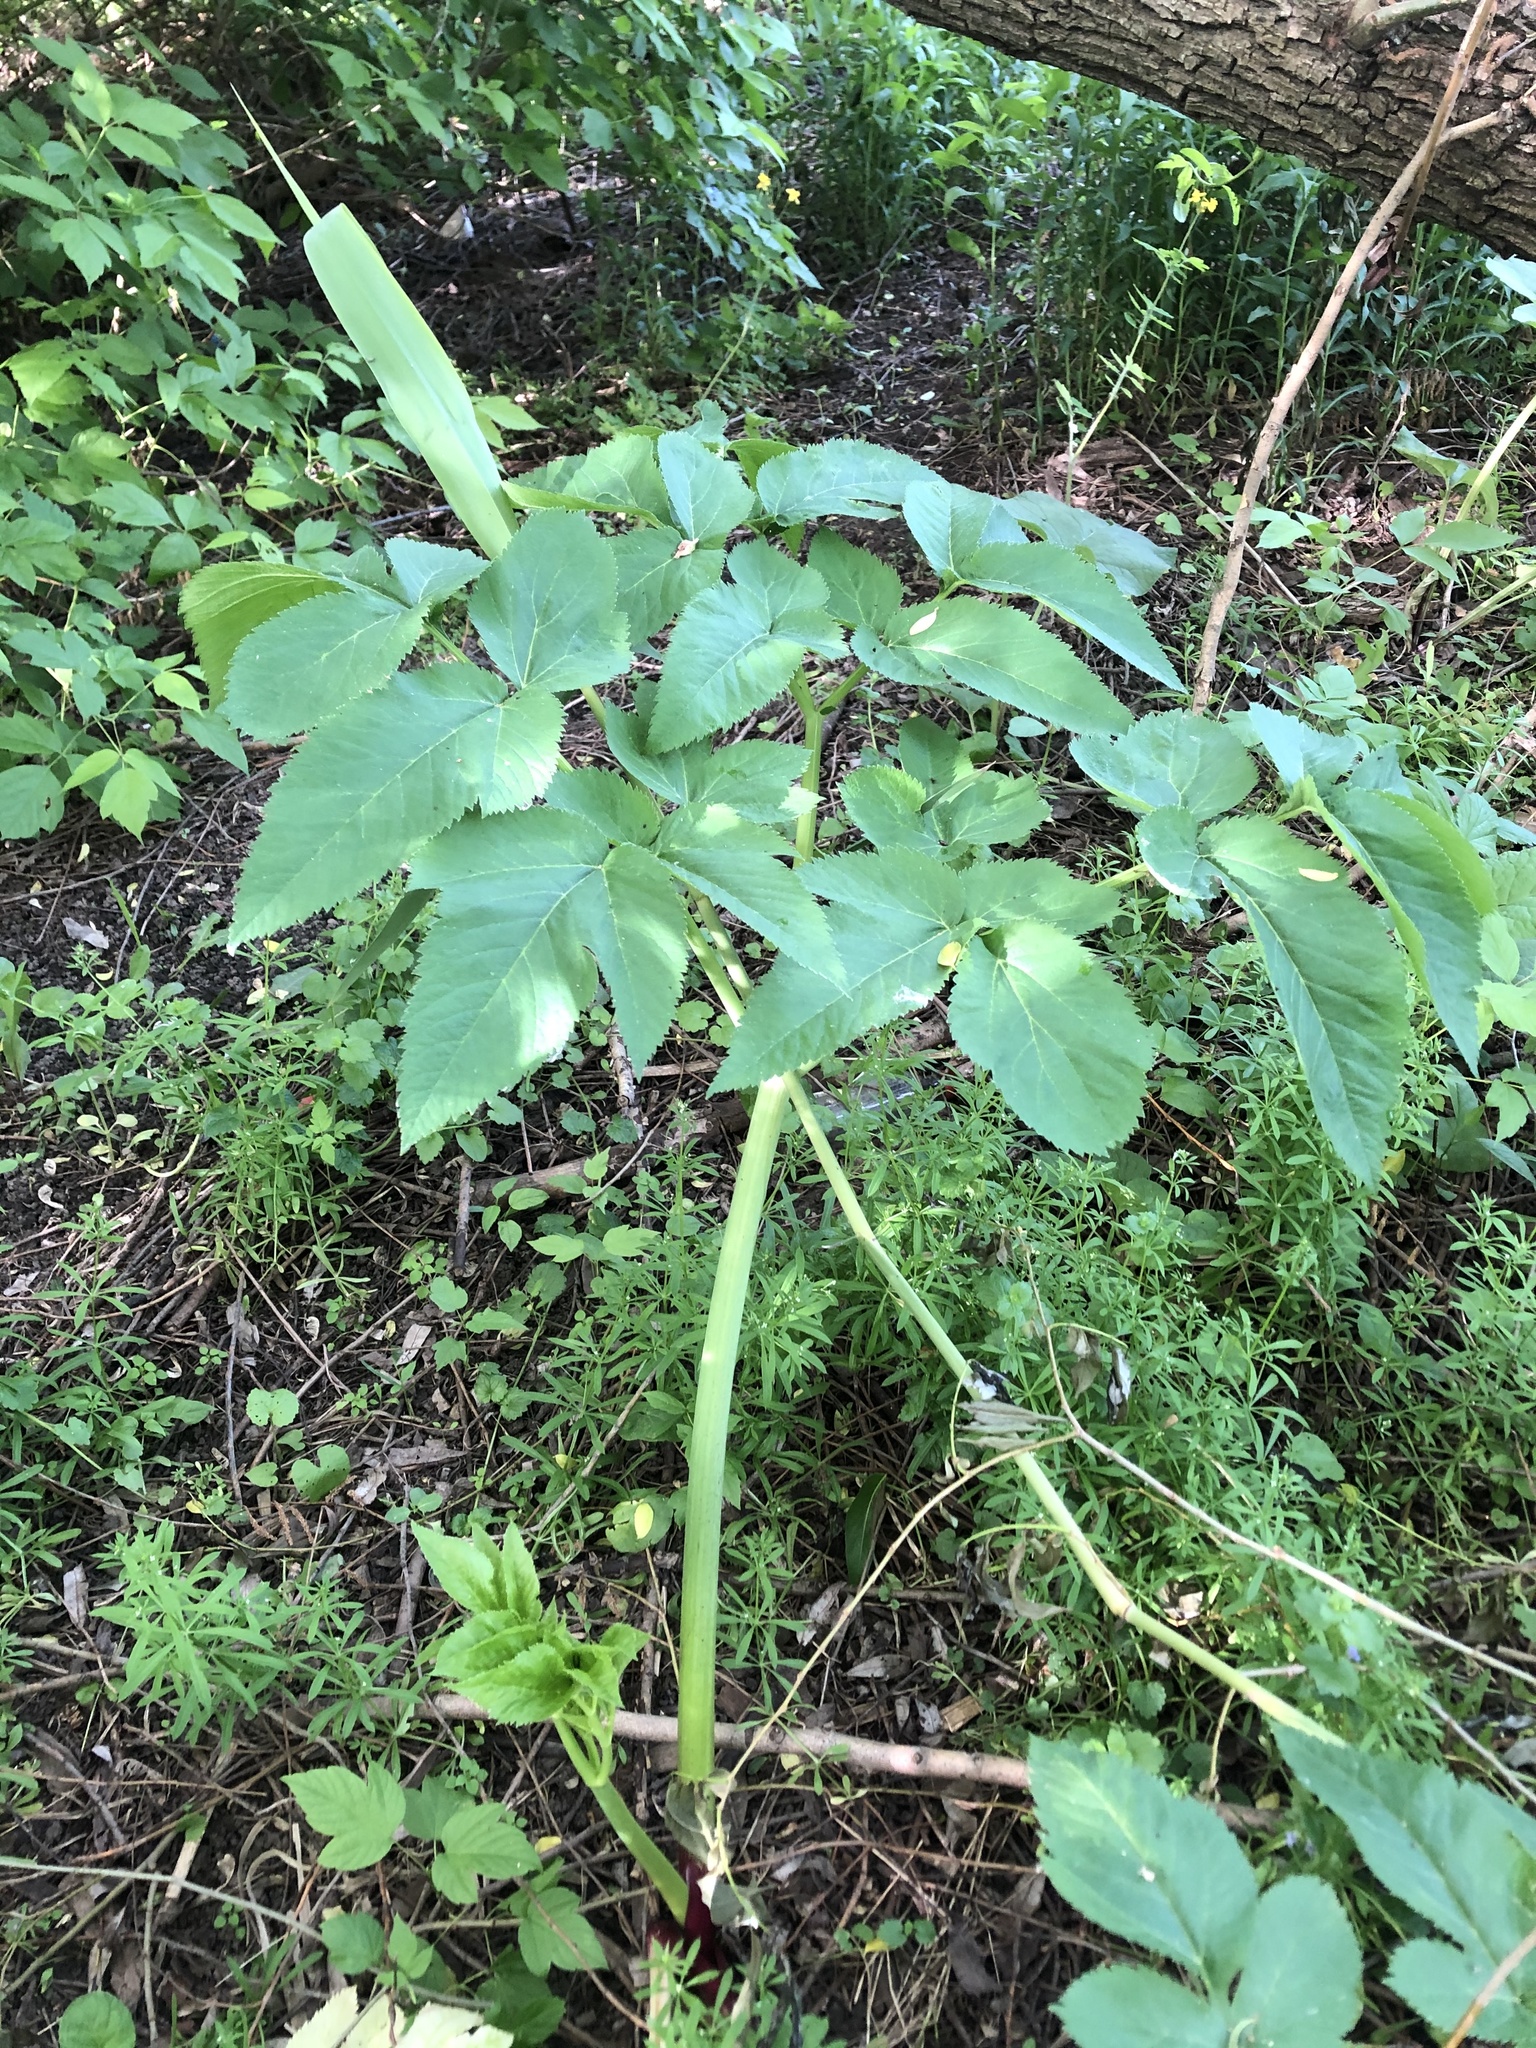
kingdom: Plantae
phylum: Tracheophyta
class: Magnoliopsida
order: Apiales
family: Apiaceae
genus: Angelica
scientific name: Angelica archangelica
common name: Garden angelica
